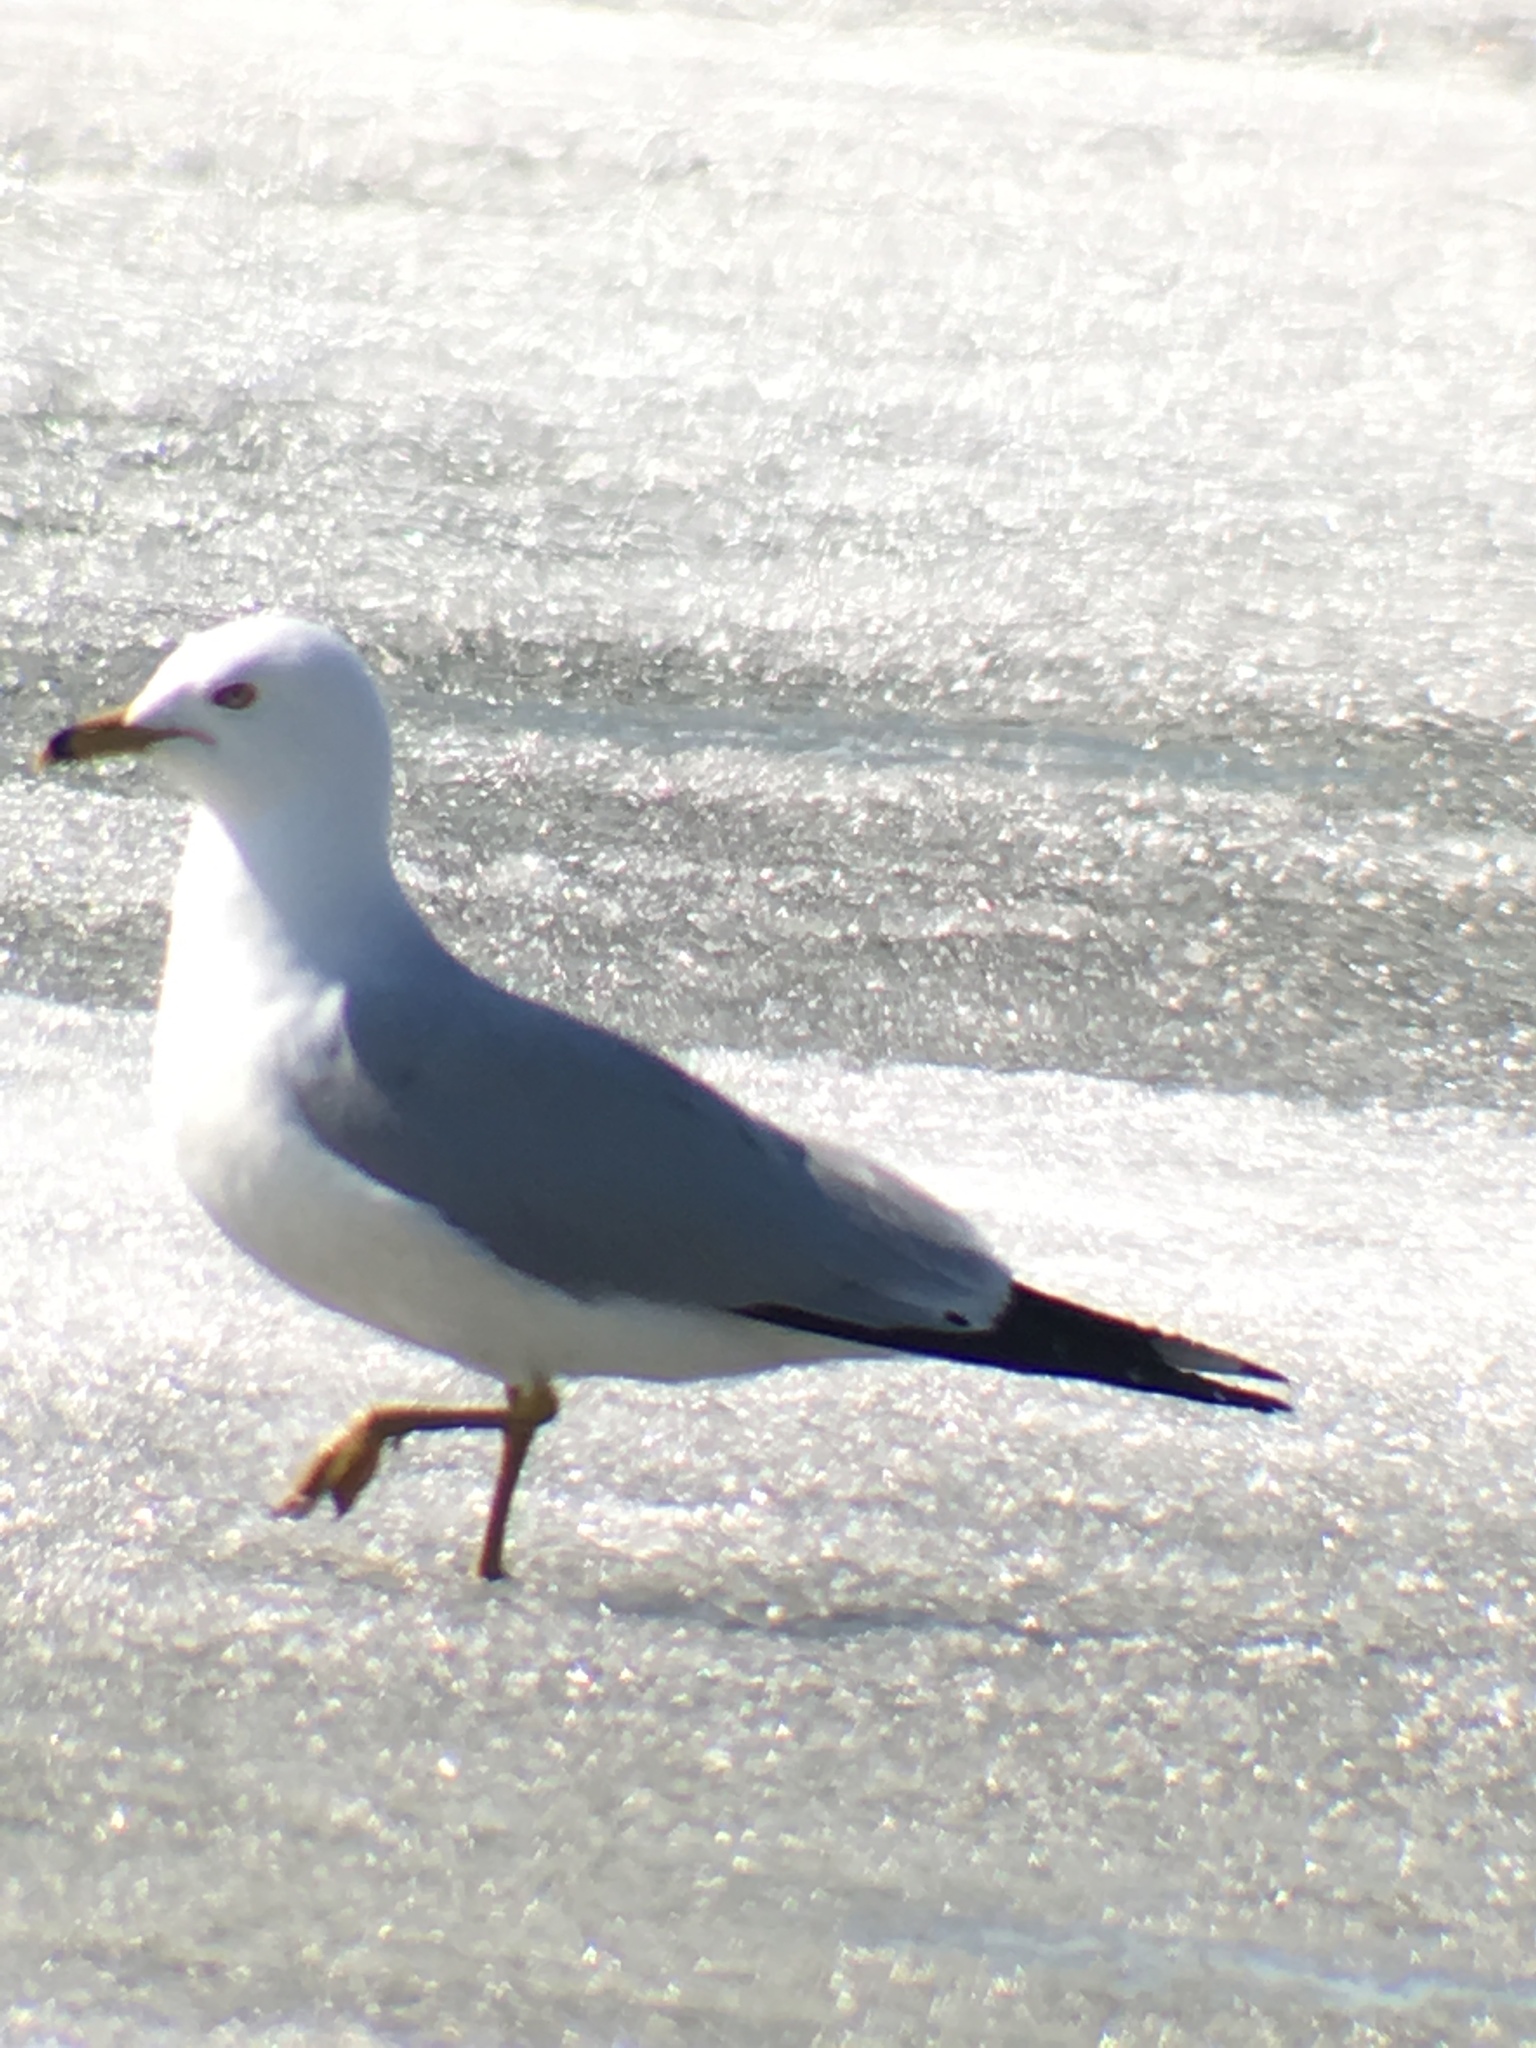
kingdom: Animalia
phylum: Chordata
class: Aves
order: Charadriiformes
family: Laridae
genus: Larus
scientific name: Larus delawarensis
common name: Ring-billed gull
